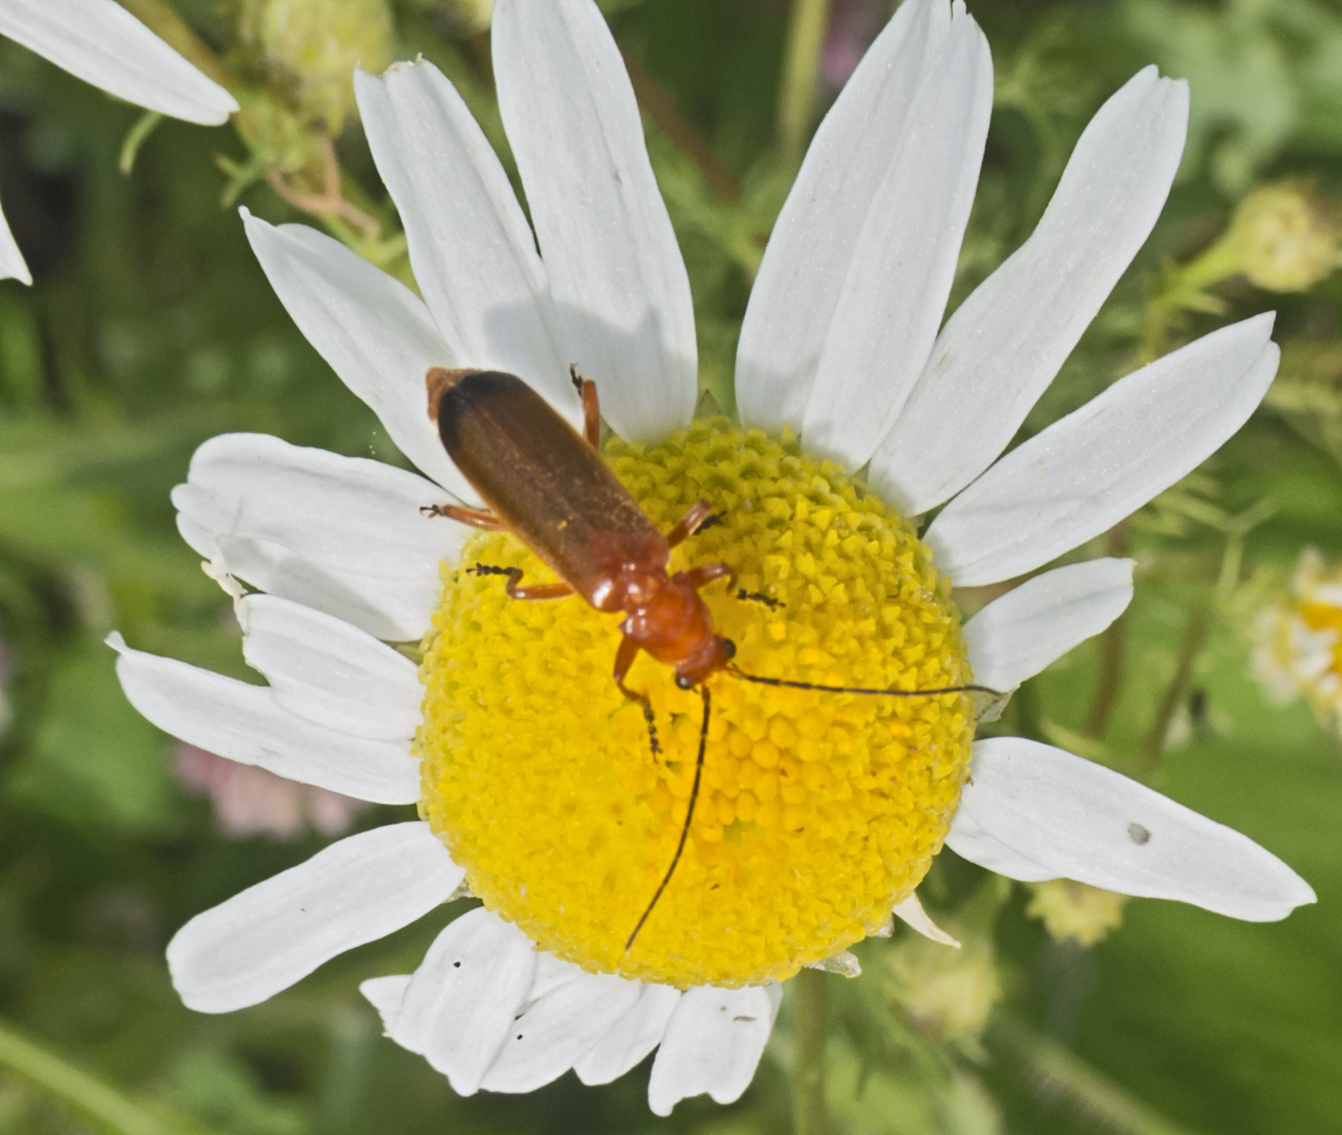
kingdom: Animalia
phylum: Arthropoda
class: Insecta
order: Coleoptera
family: Cantharidae
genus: Rhagonycha
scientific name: Rhagonycha fulva
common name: Common red soldier beetle
